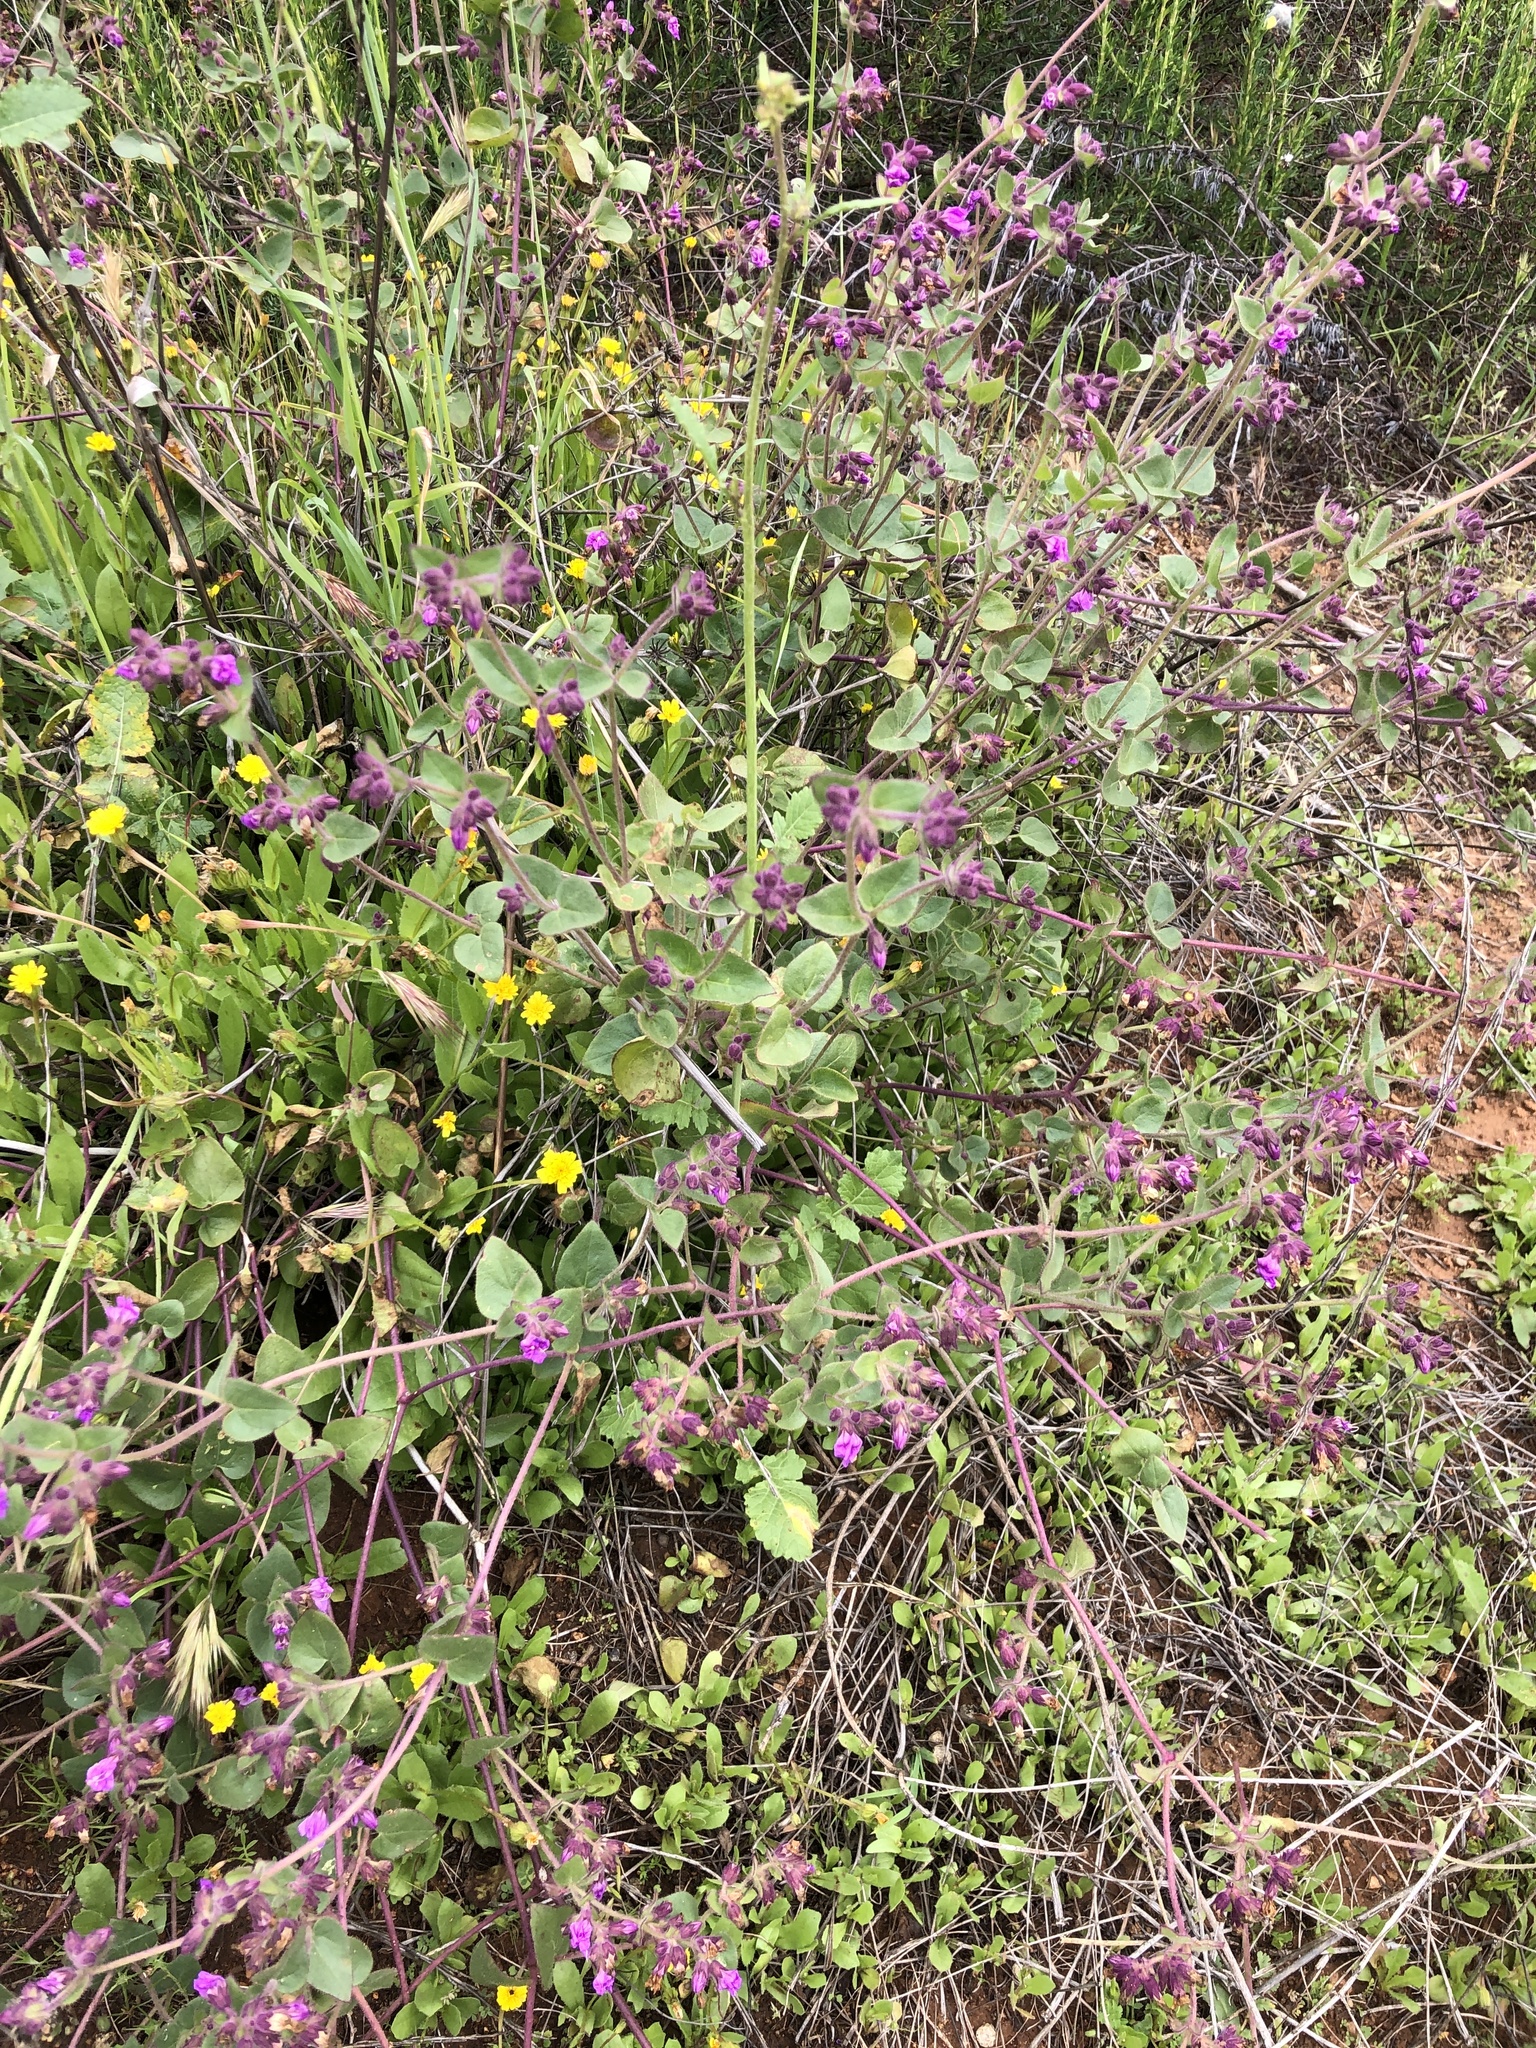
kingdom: Plantae
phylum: Tracheophyta
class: Magnoliopsida
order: Caryophyllales
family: Nyctaginaceae
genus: Mirabilis
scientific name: Mirabilis laevis
